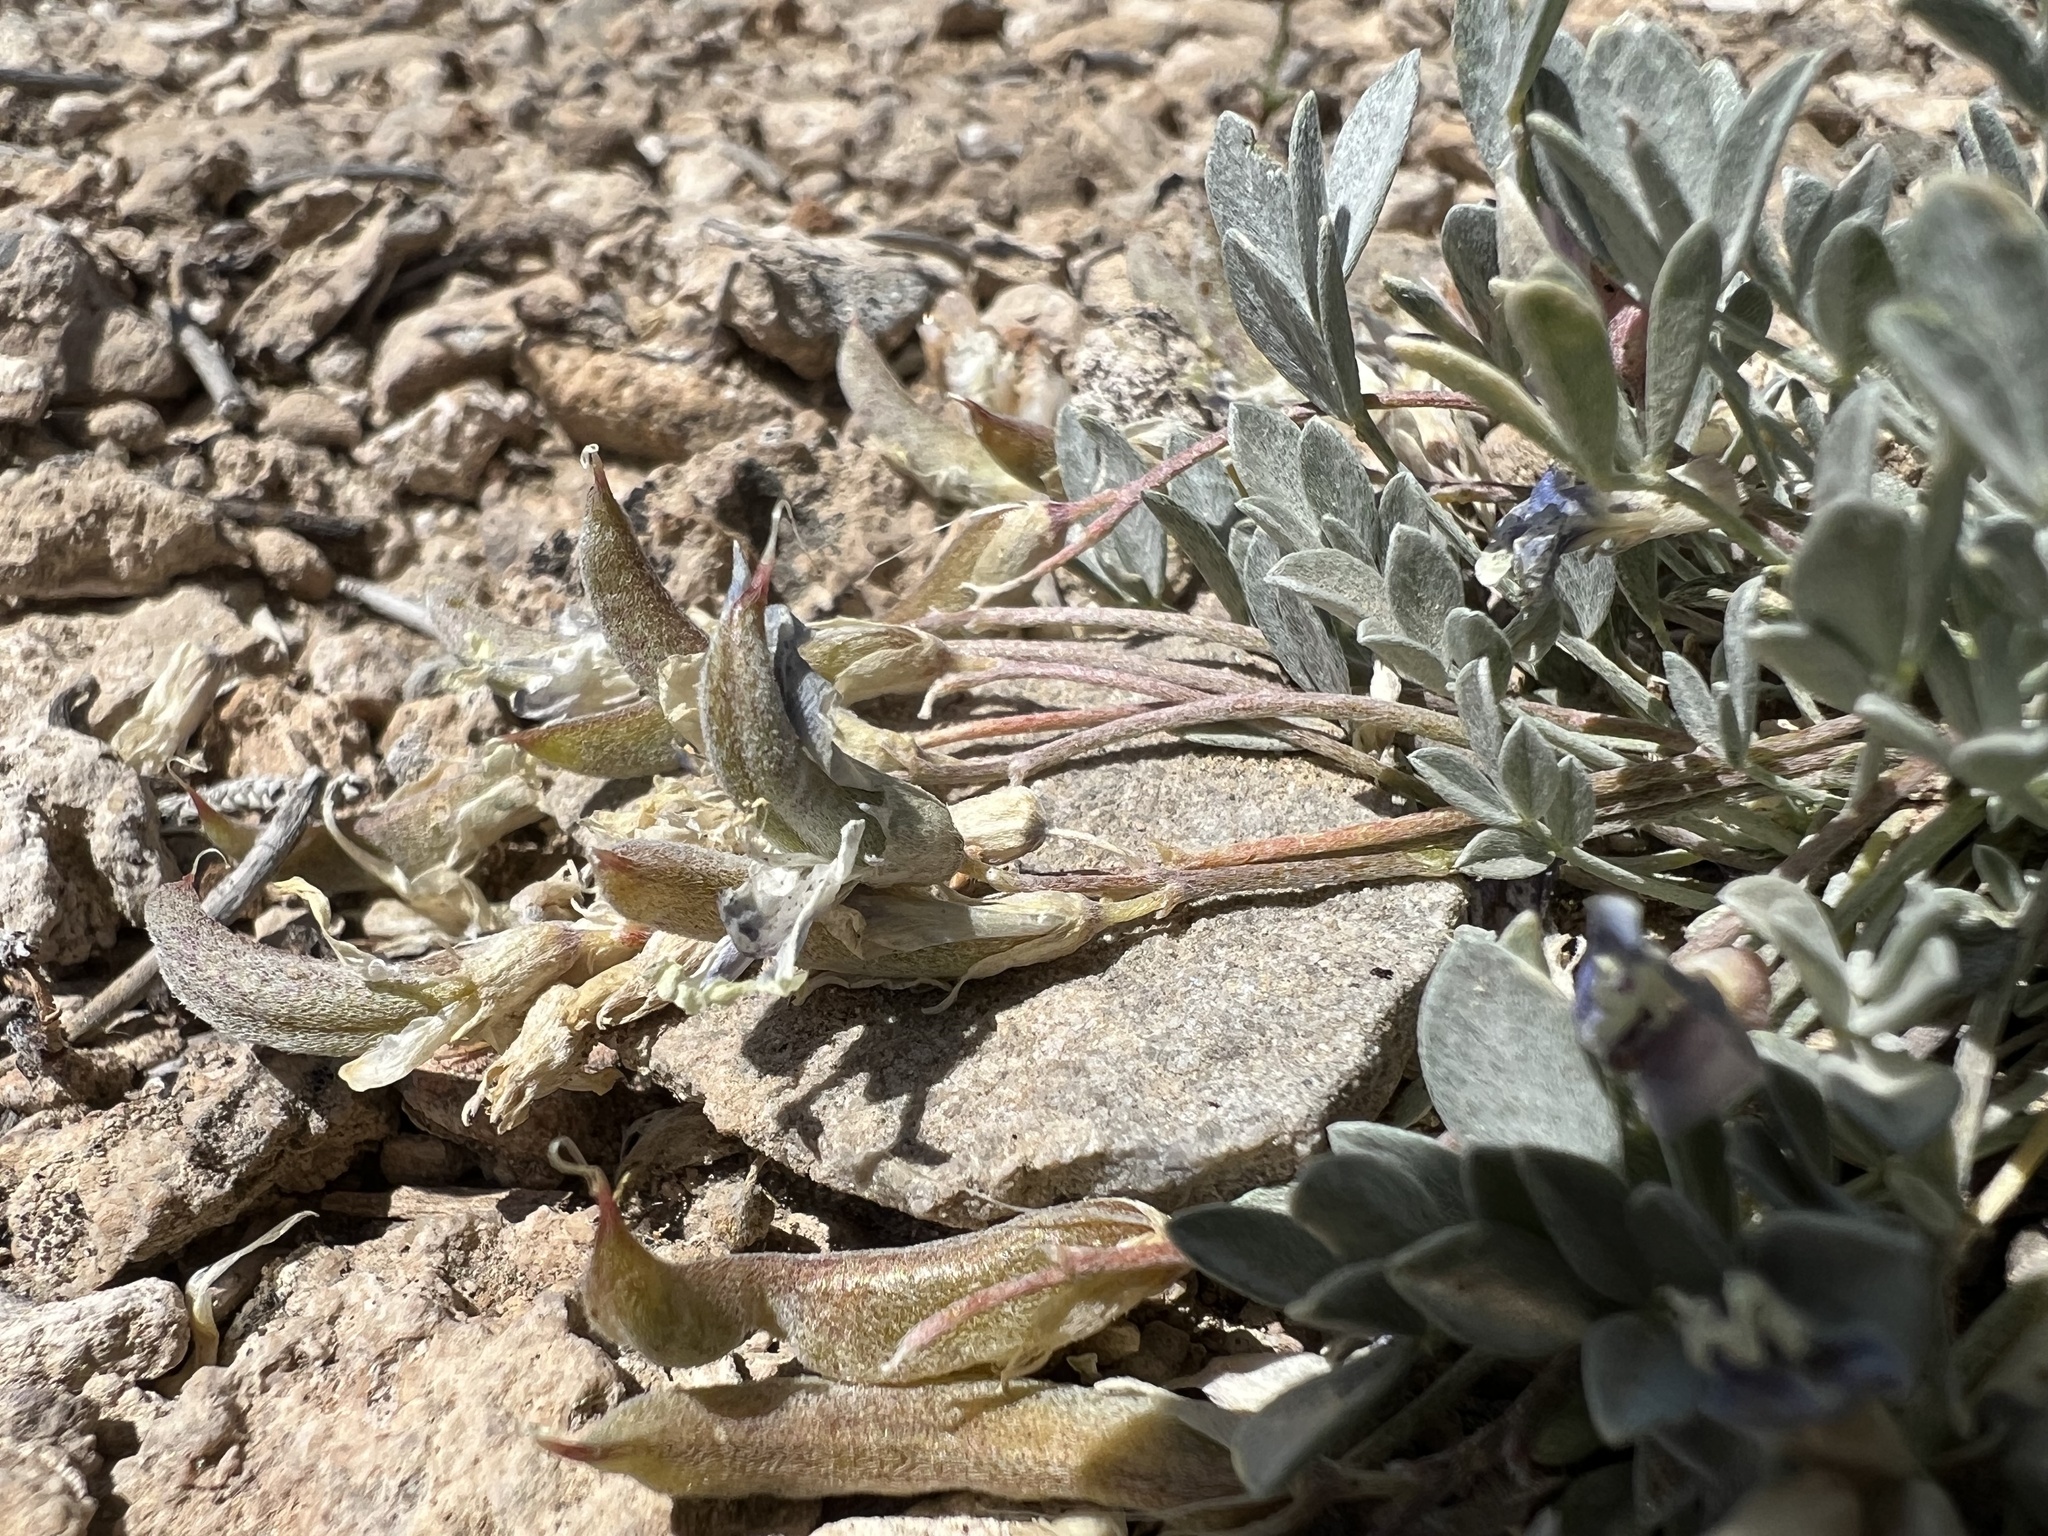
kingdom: Plantae
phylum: Tracheophyta
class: Magnoliopsida
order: Fabales
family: Fabaceae
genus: Astragalus
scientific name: Astragalus calycosus
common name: King's milkvetch
